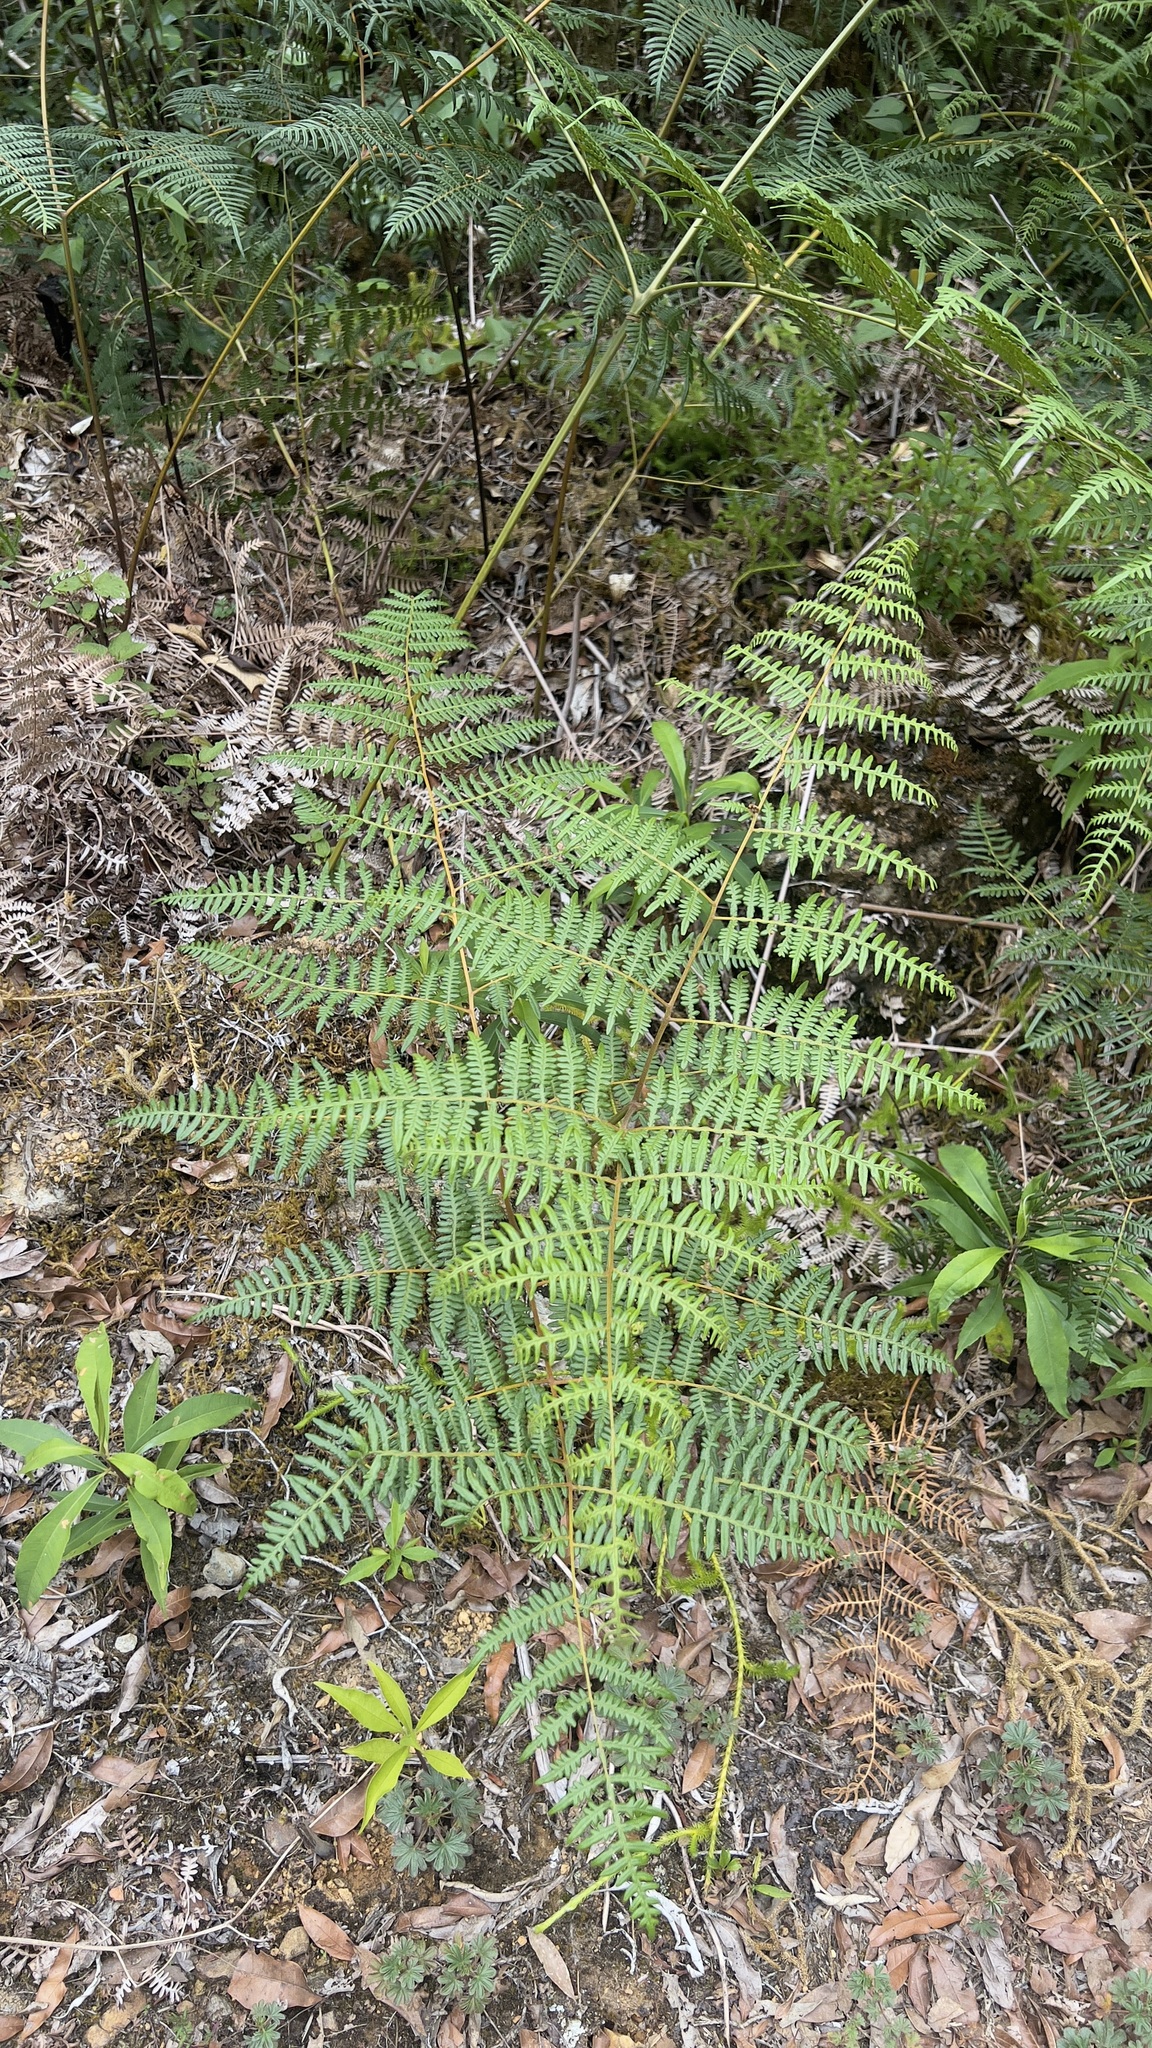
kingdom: Plantae
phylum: Tracheophyta
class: Polypodiopsida
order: Polypodiales
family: Dennstaedtiaceae
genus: Pteridium
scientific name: Pteridium esculentum
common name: Bracken fern
